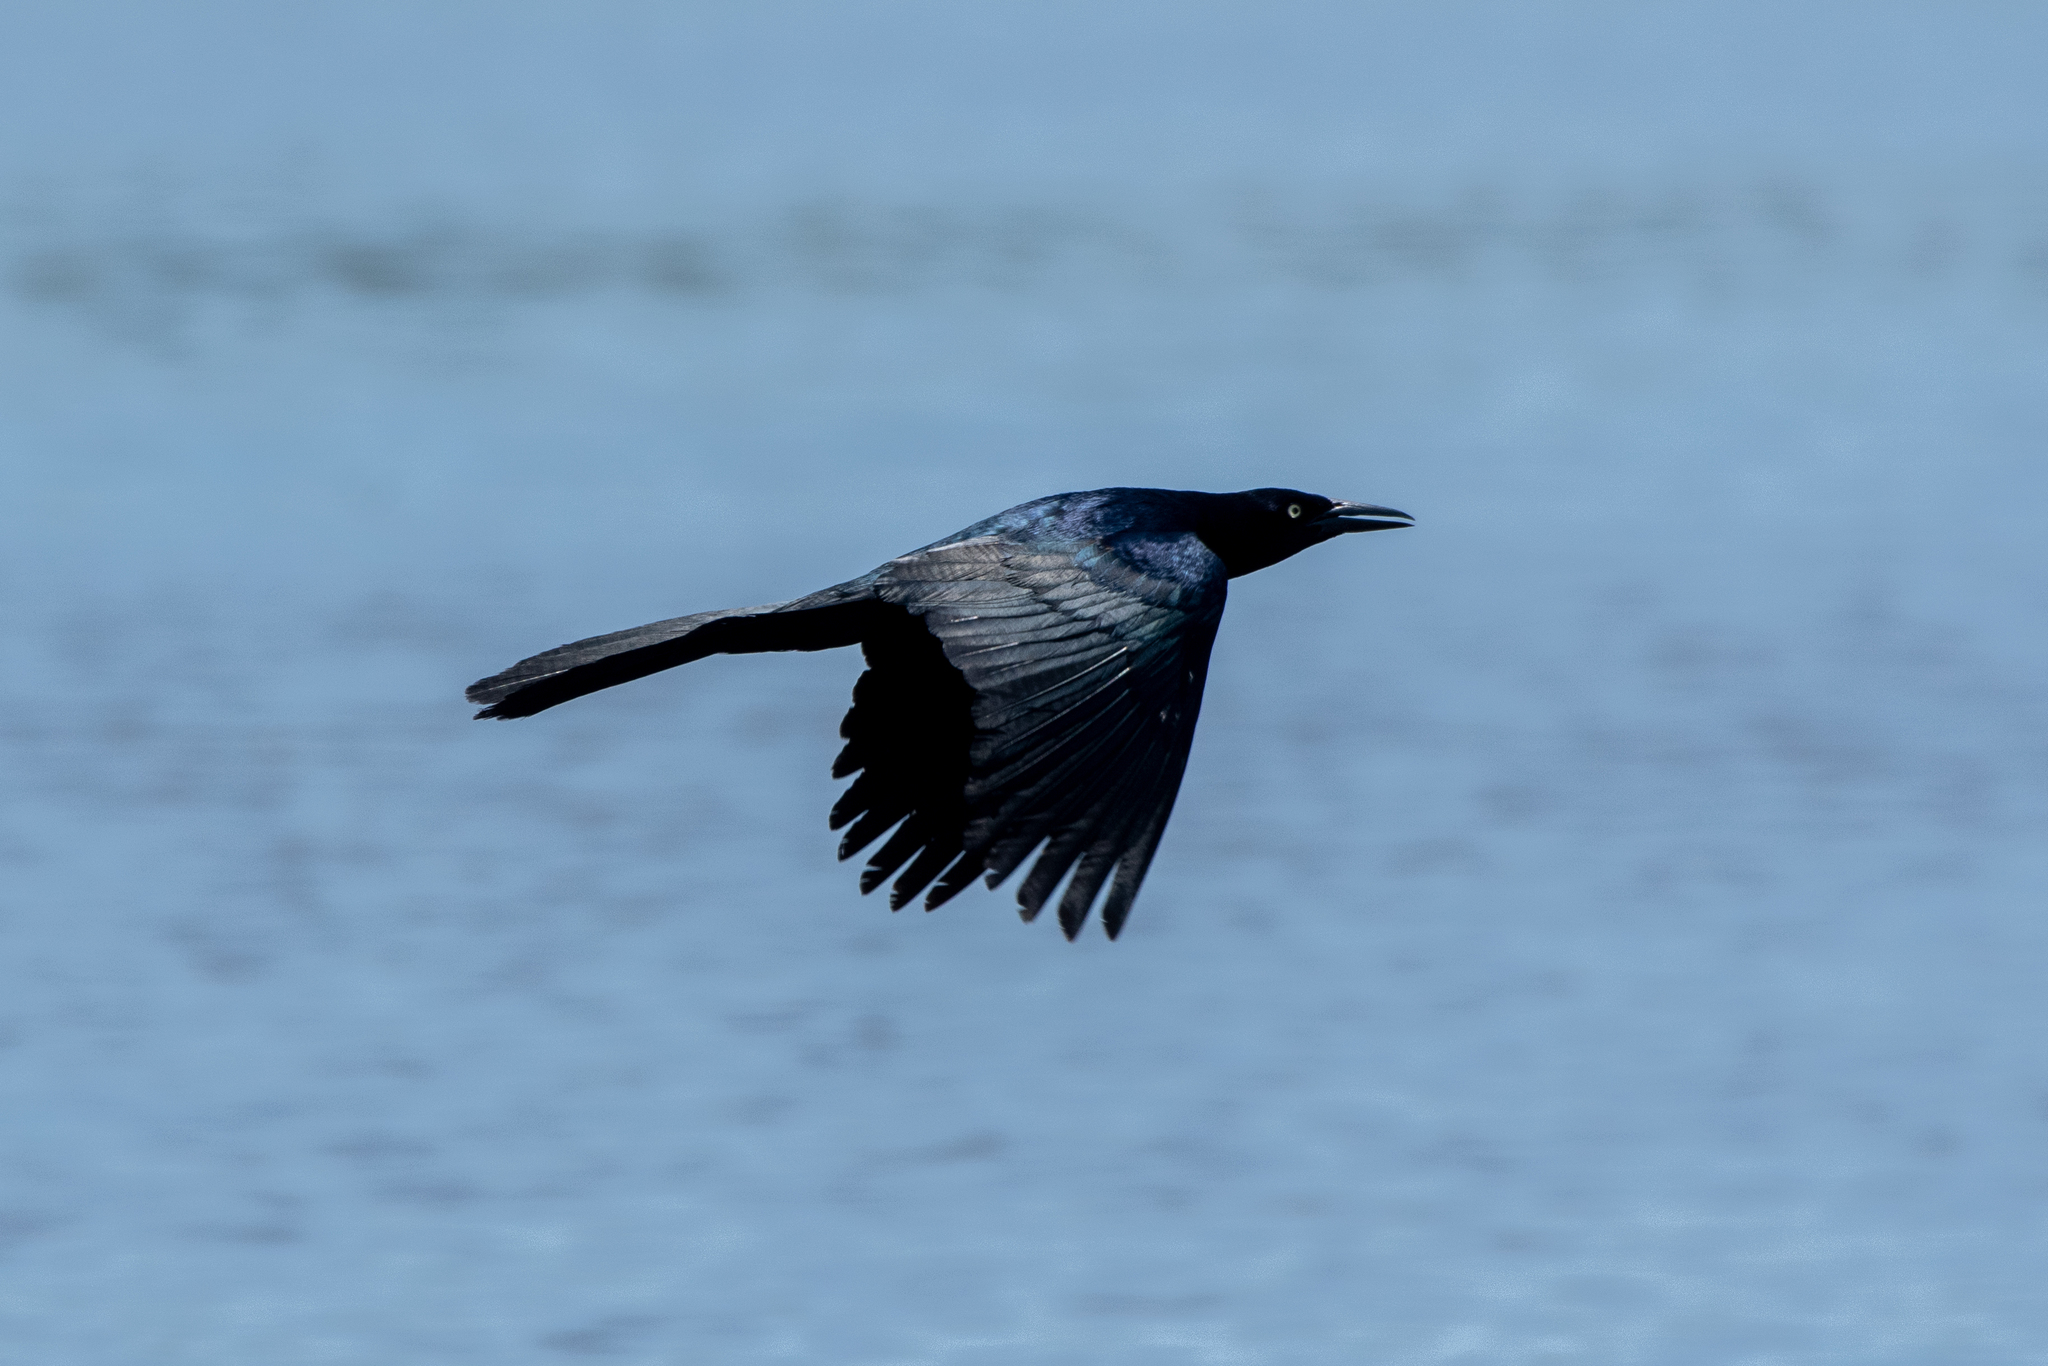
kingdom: Animalia
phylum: Chordata
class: Aves
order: Passeriformes
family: Icteridae
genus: Quiscalus
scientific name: Quiscalus mexicanus
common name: Great-tailed grackle
